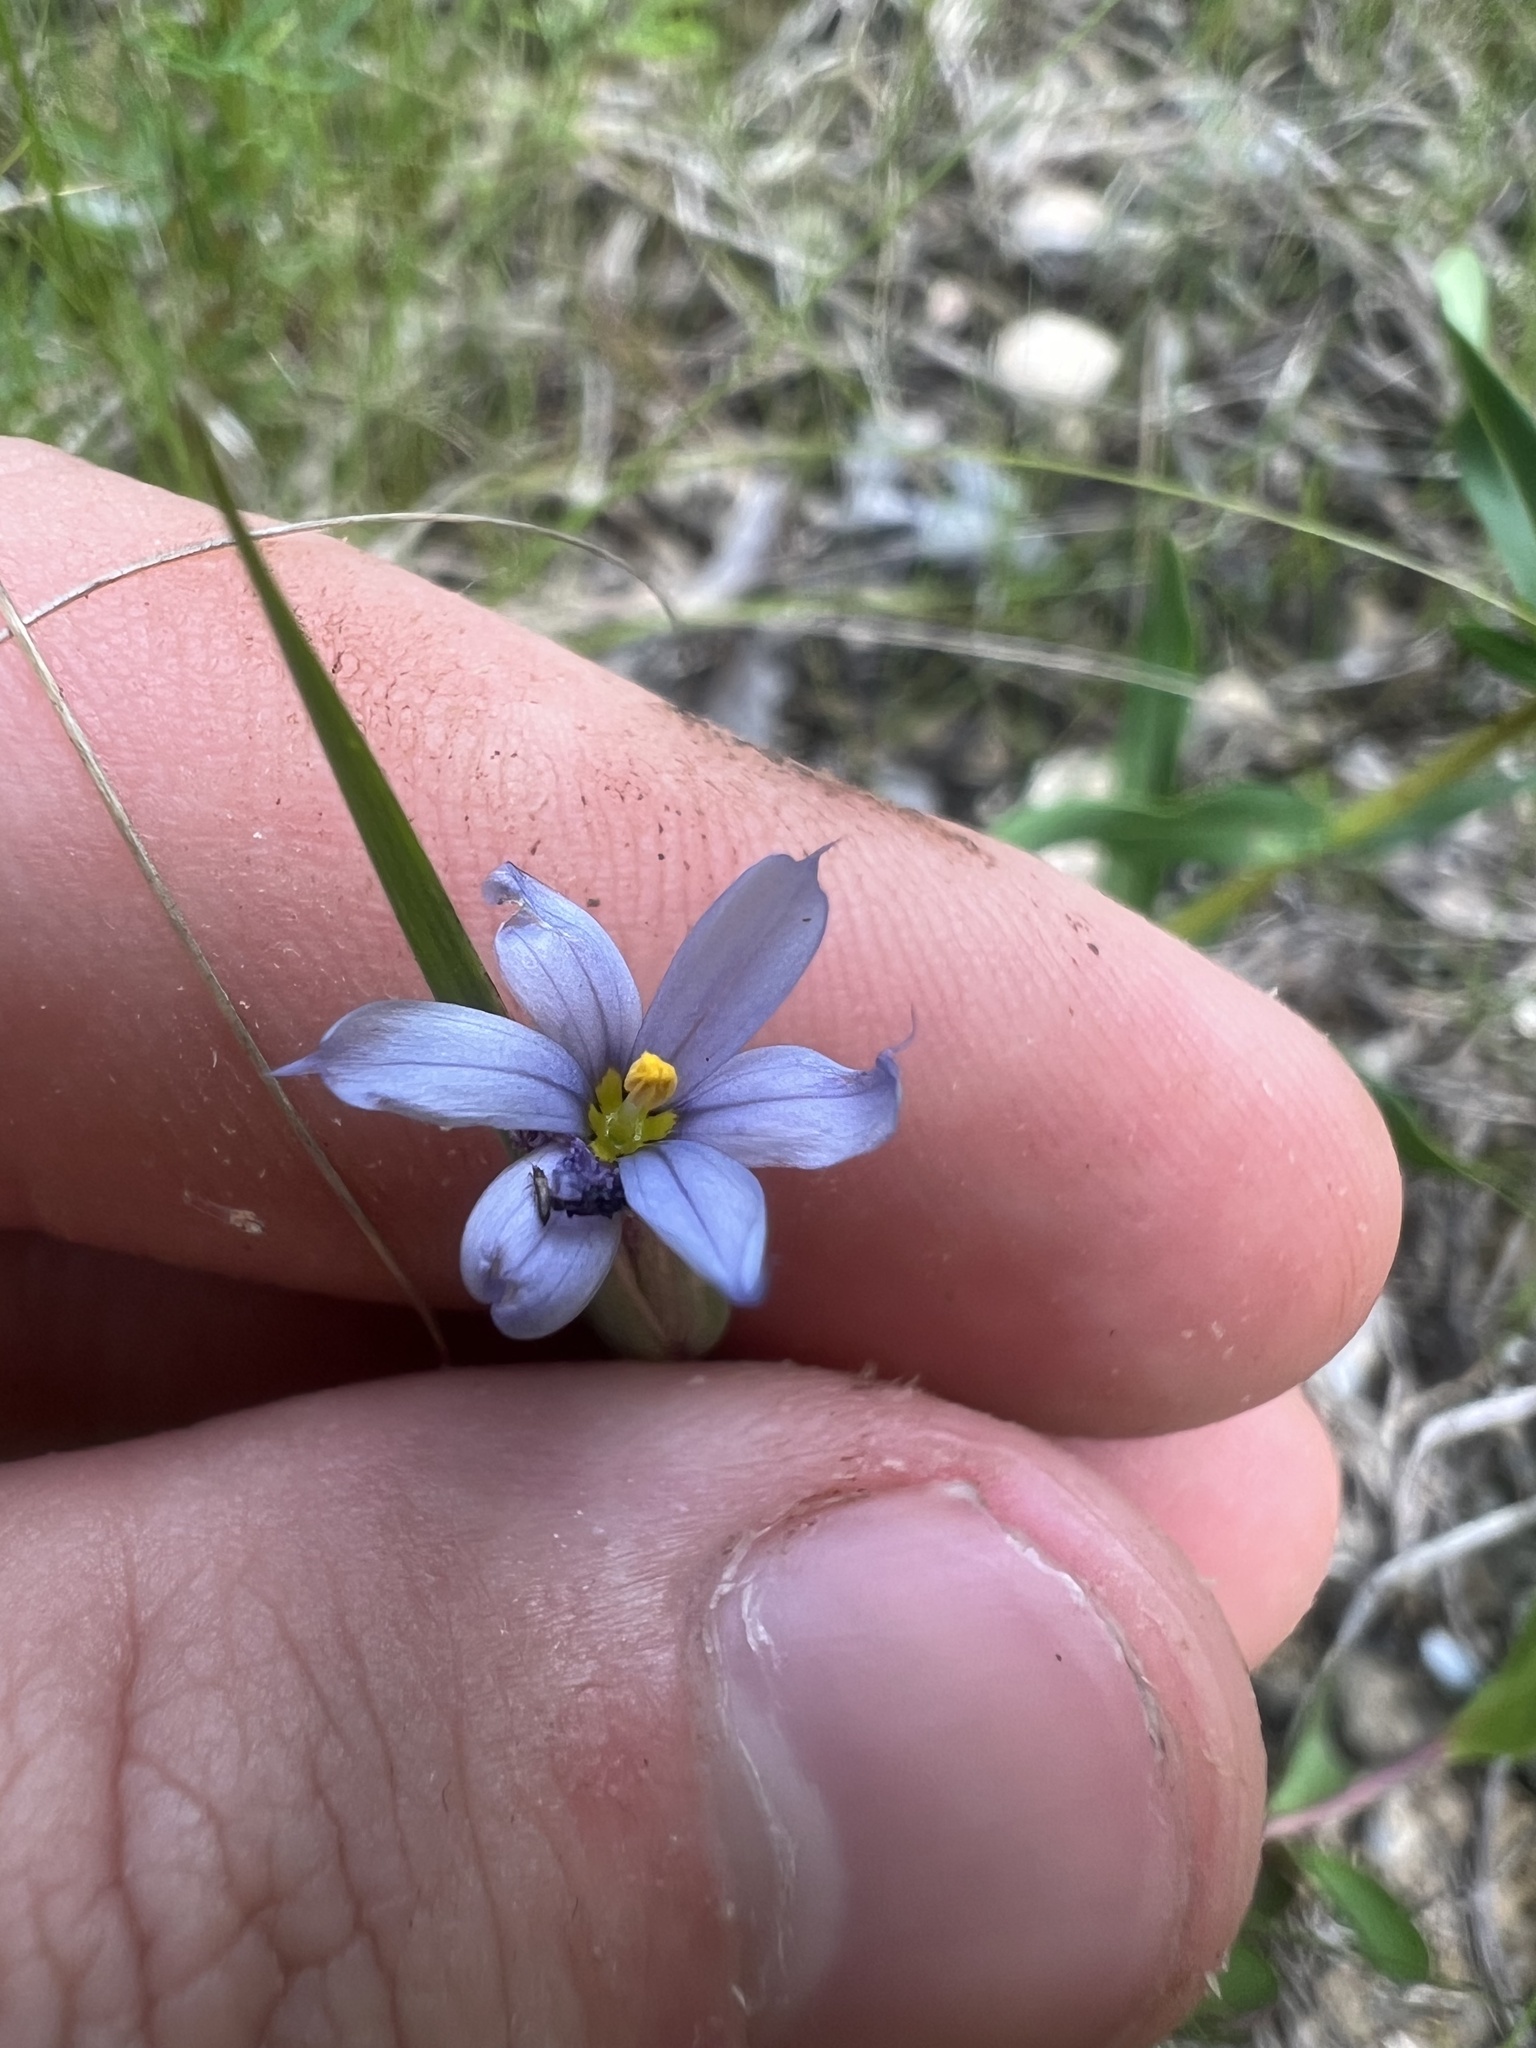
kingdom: Plantae
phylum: Tracheophyta
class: Liliopsida
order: Asparagales
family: Iridaceae
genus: Sisyrinchium
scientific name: Sisyrinchium albidum
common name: Pale blue-eyed-grass
